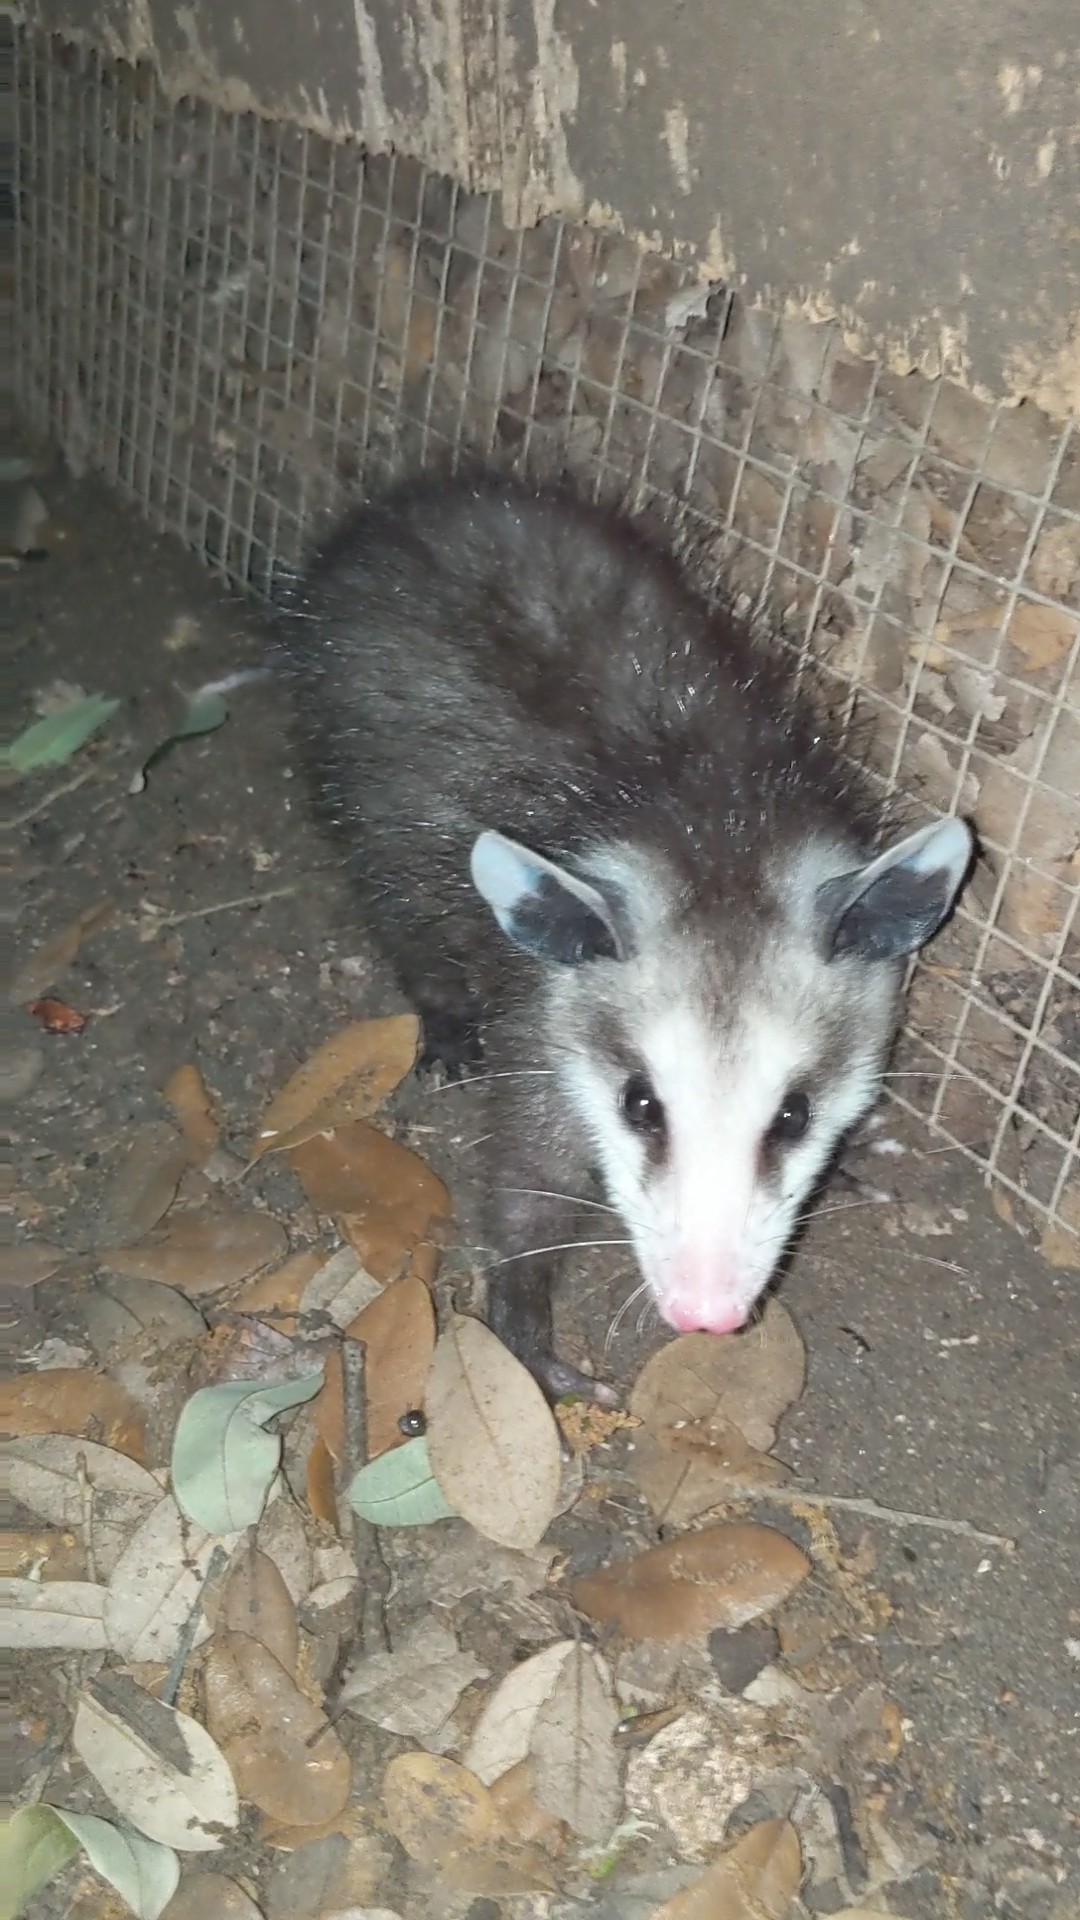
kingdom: Animalia
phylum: Chordata
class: Mammalia
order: Didelphimorphia
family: Didelphidae
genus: Didelphis
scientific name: Didelphis virginiana
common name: Virginia opossum
